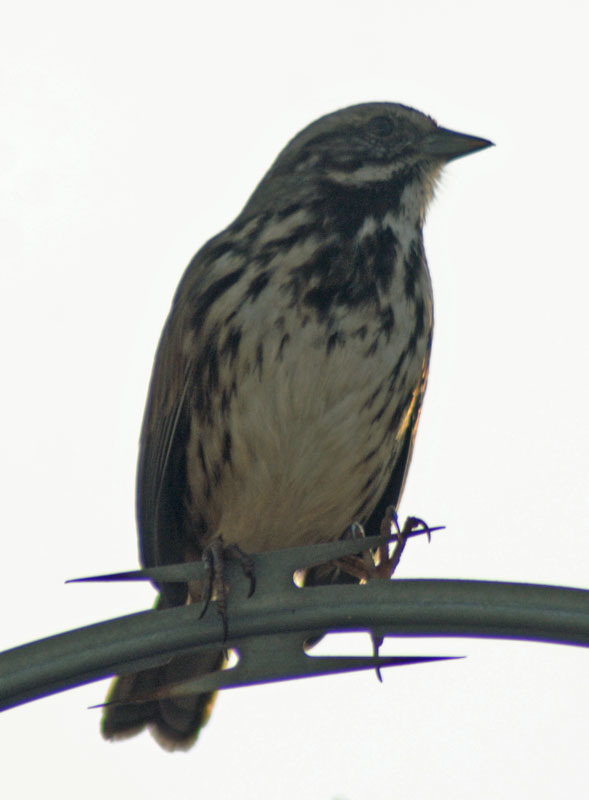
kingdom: Animalia
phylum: Chordata
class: Aves
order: Passeriformes
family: Passerellidae
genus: Melospiza
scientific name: Melospiza melodia
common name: Song sparrow
